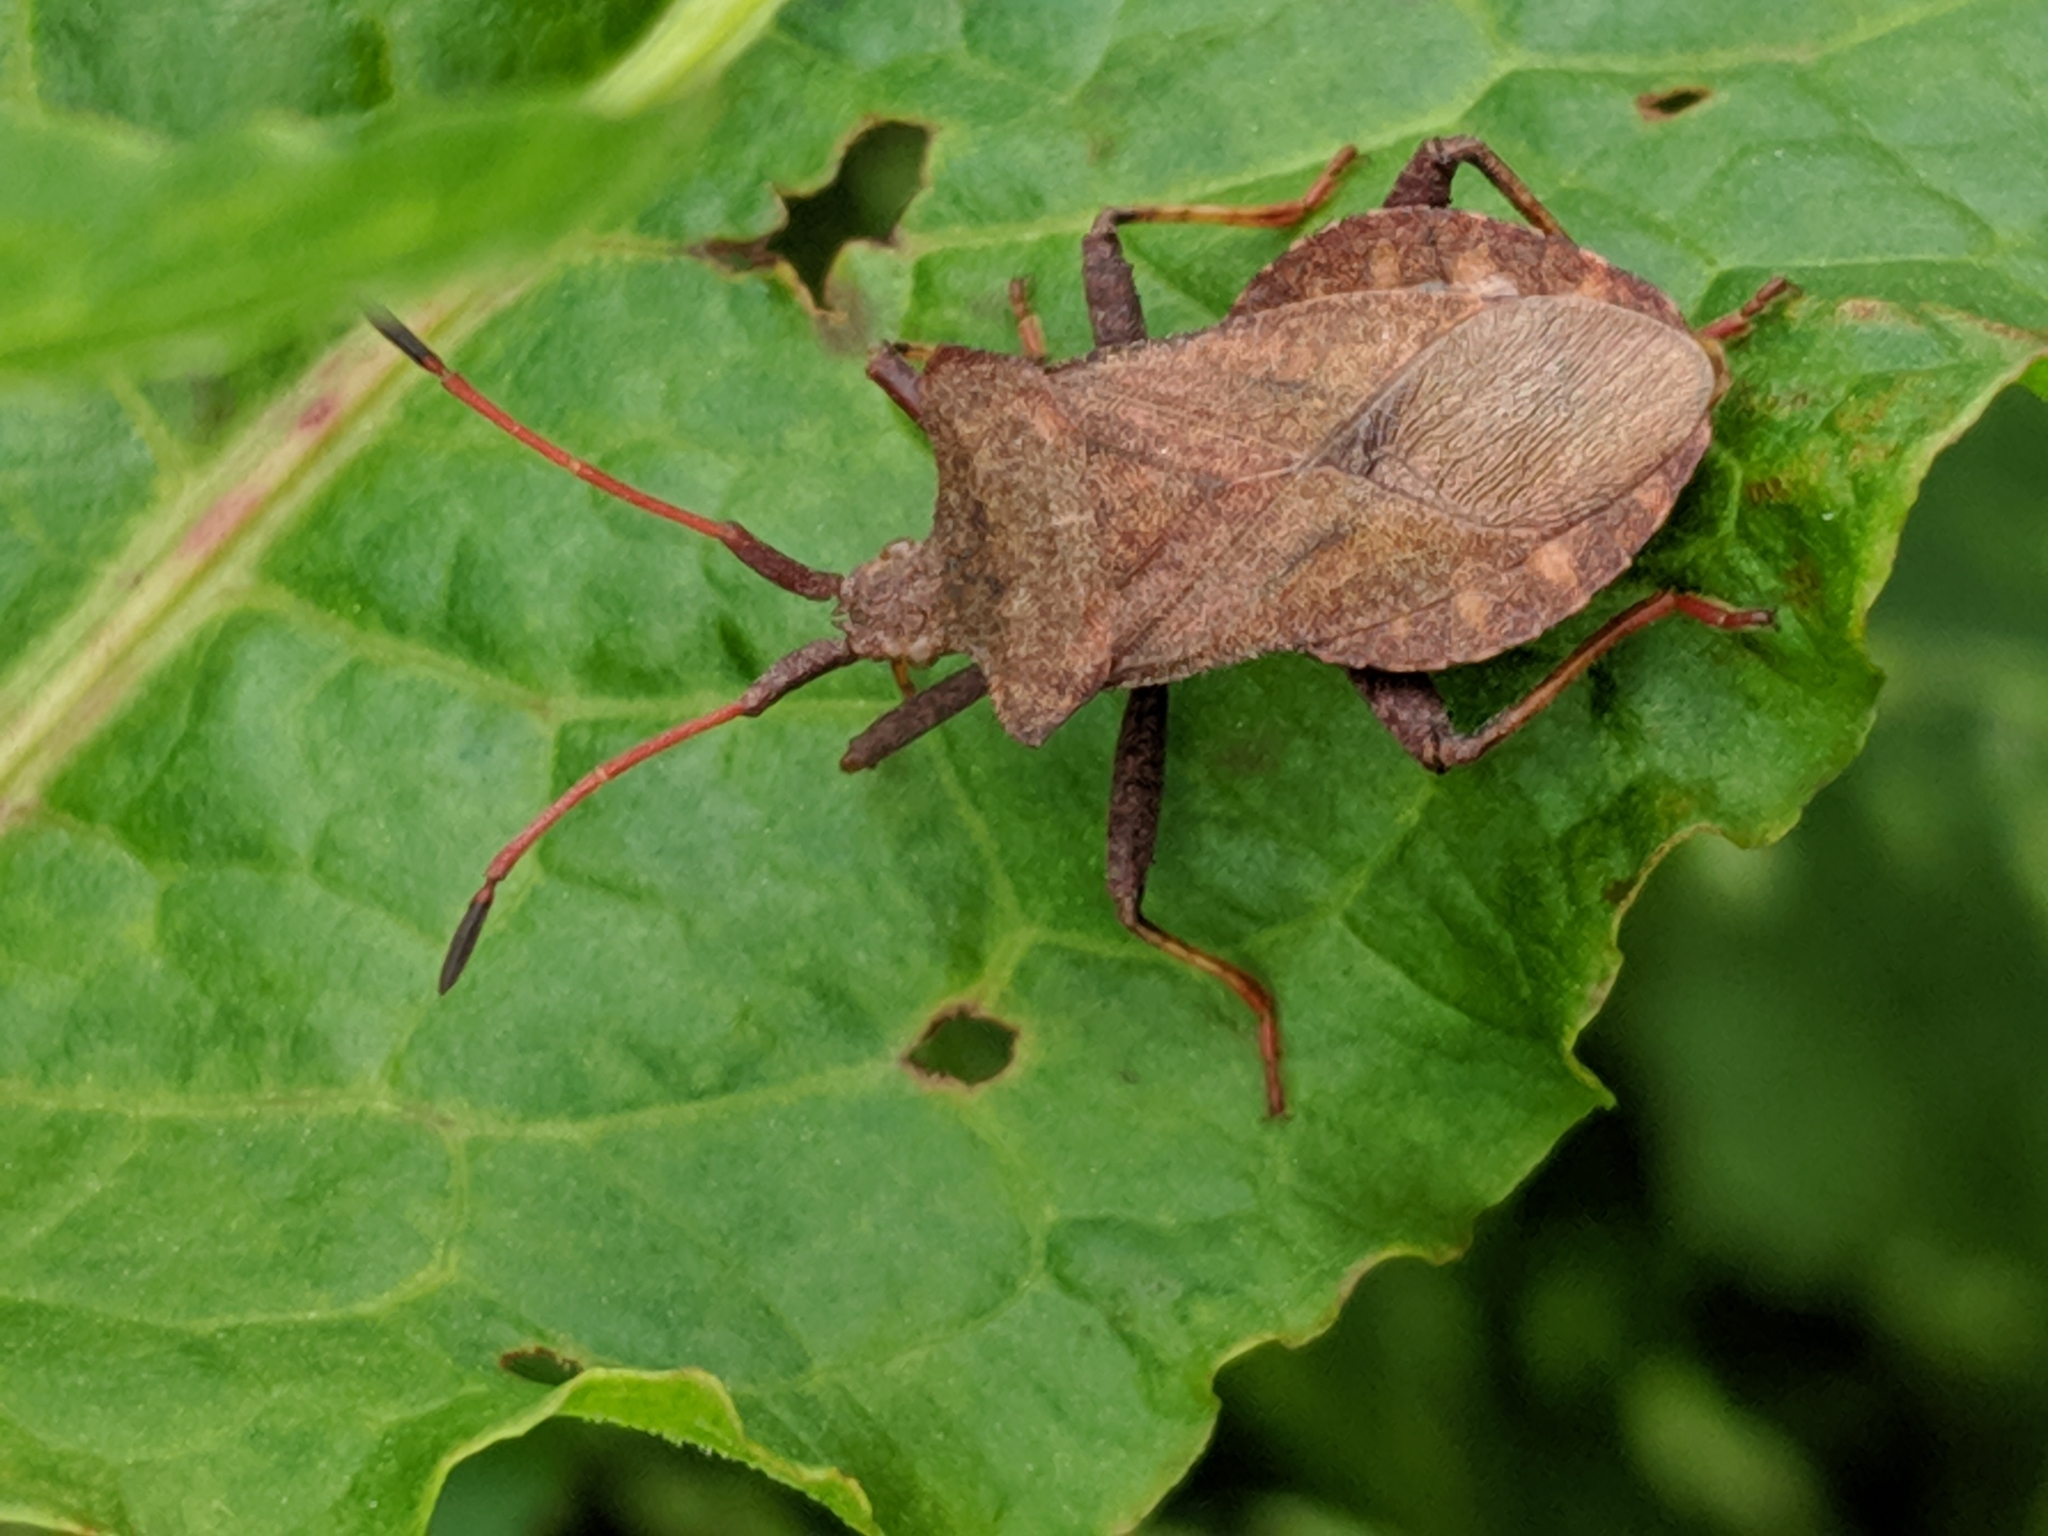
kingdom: Animalia
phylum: Arthropoda
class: Insecta
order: Hemiptera
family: Coreidae
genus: Coreus
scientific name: Coreus marginatus
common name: Dock bug
